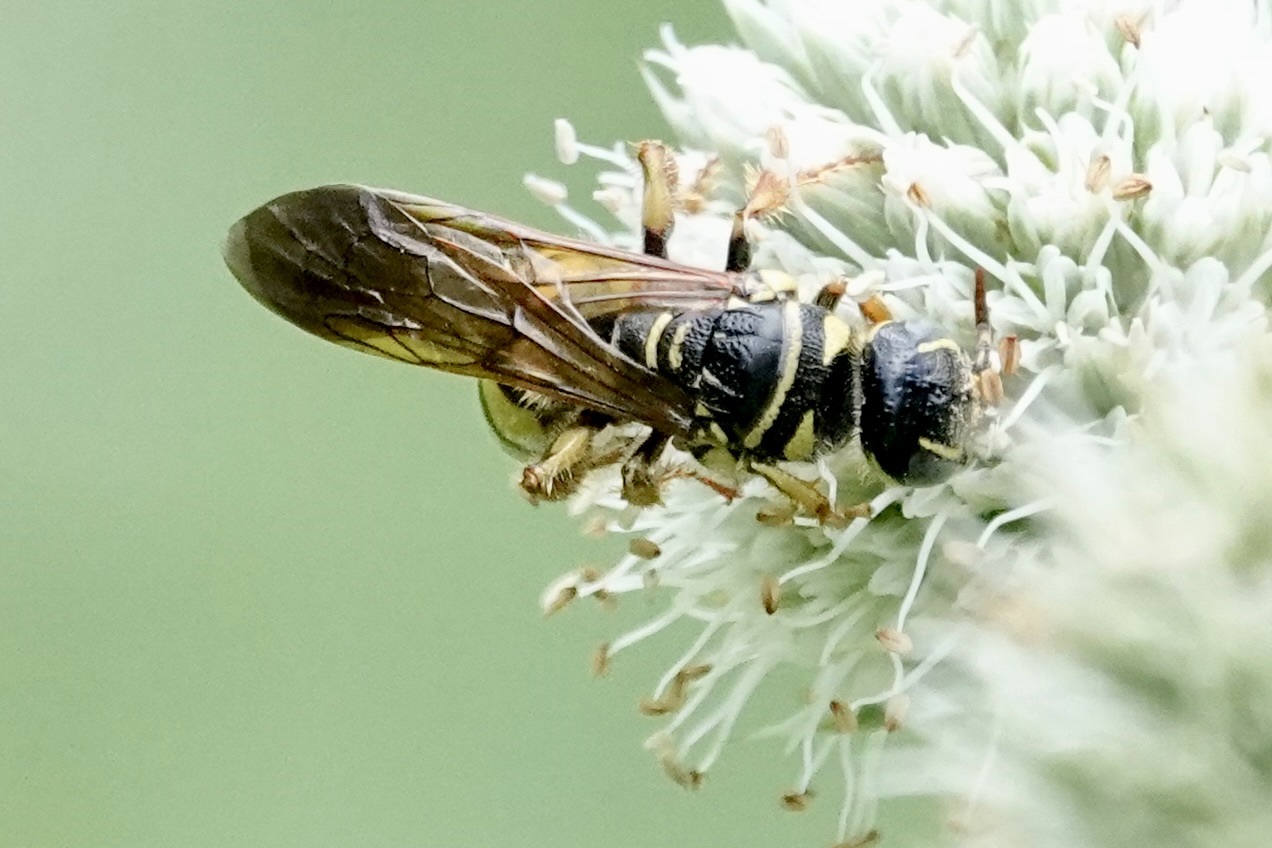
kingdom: Animalia
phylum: Arthropoda
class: Insecta
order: Hymenoptera
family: Tiphiidae
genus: Myzinum
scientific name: Myzinum quinquecinctum
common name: Five-banded thynnid wasp
